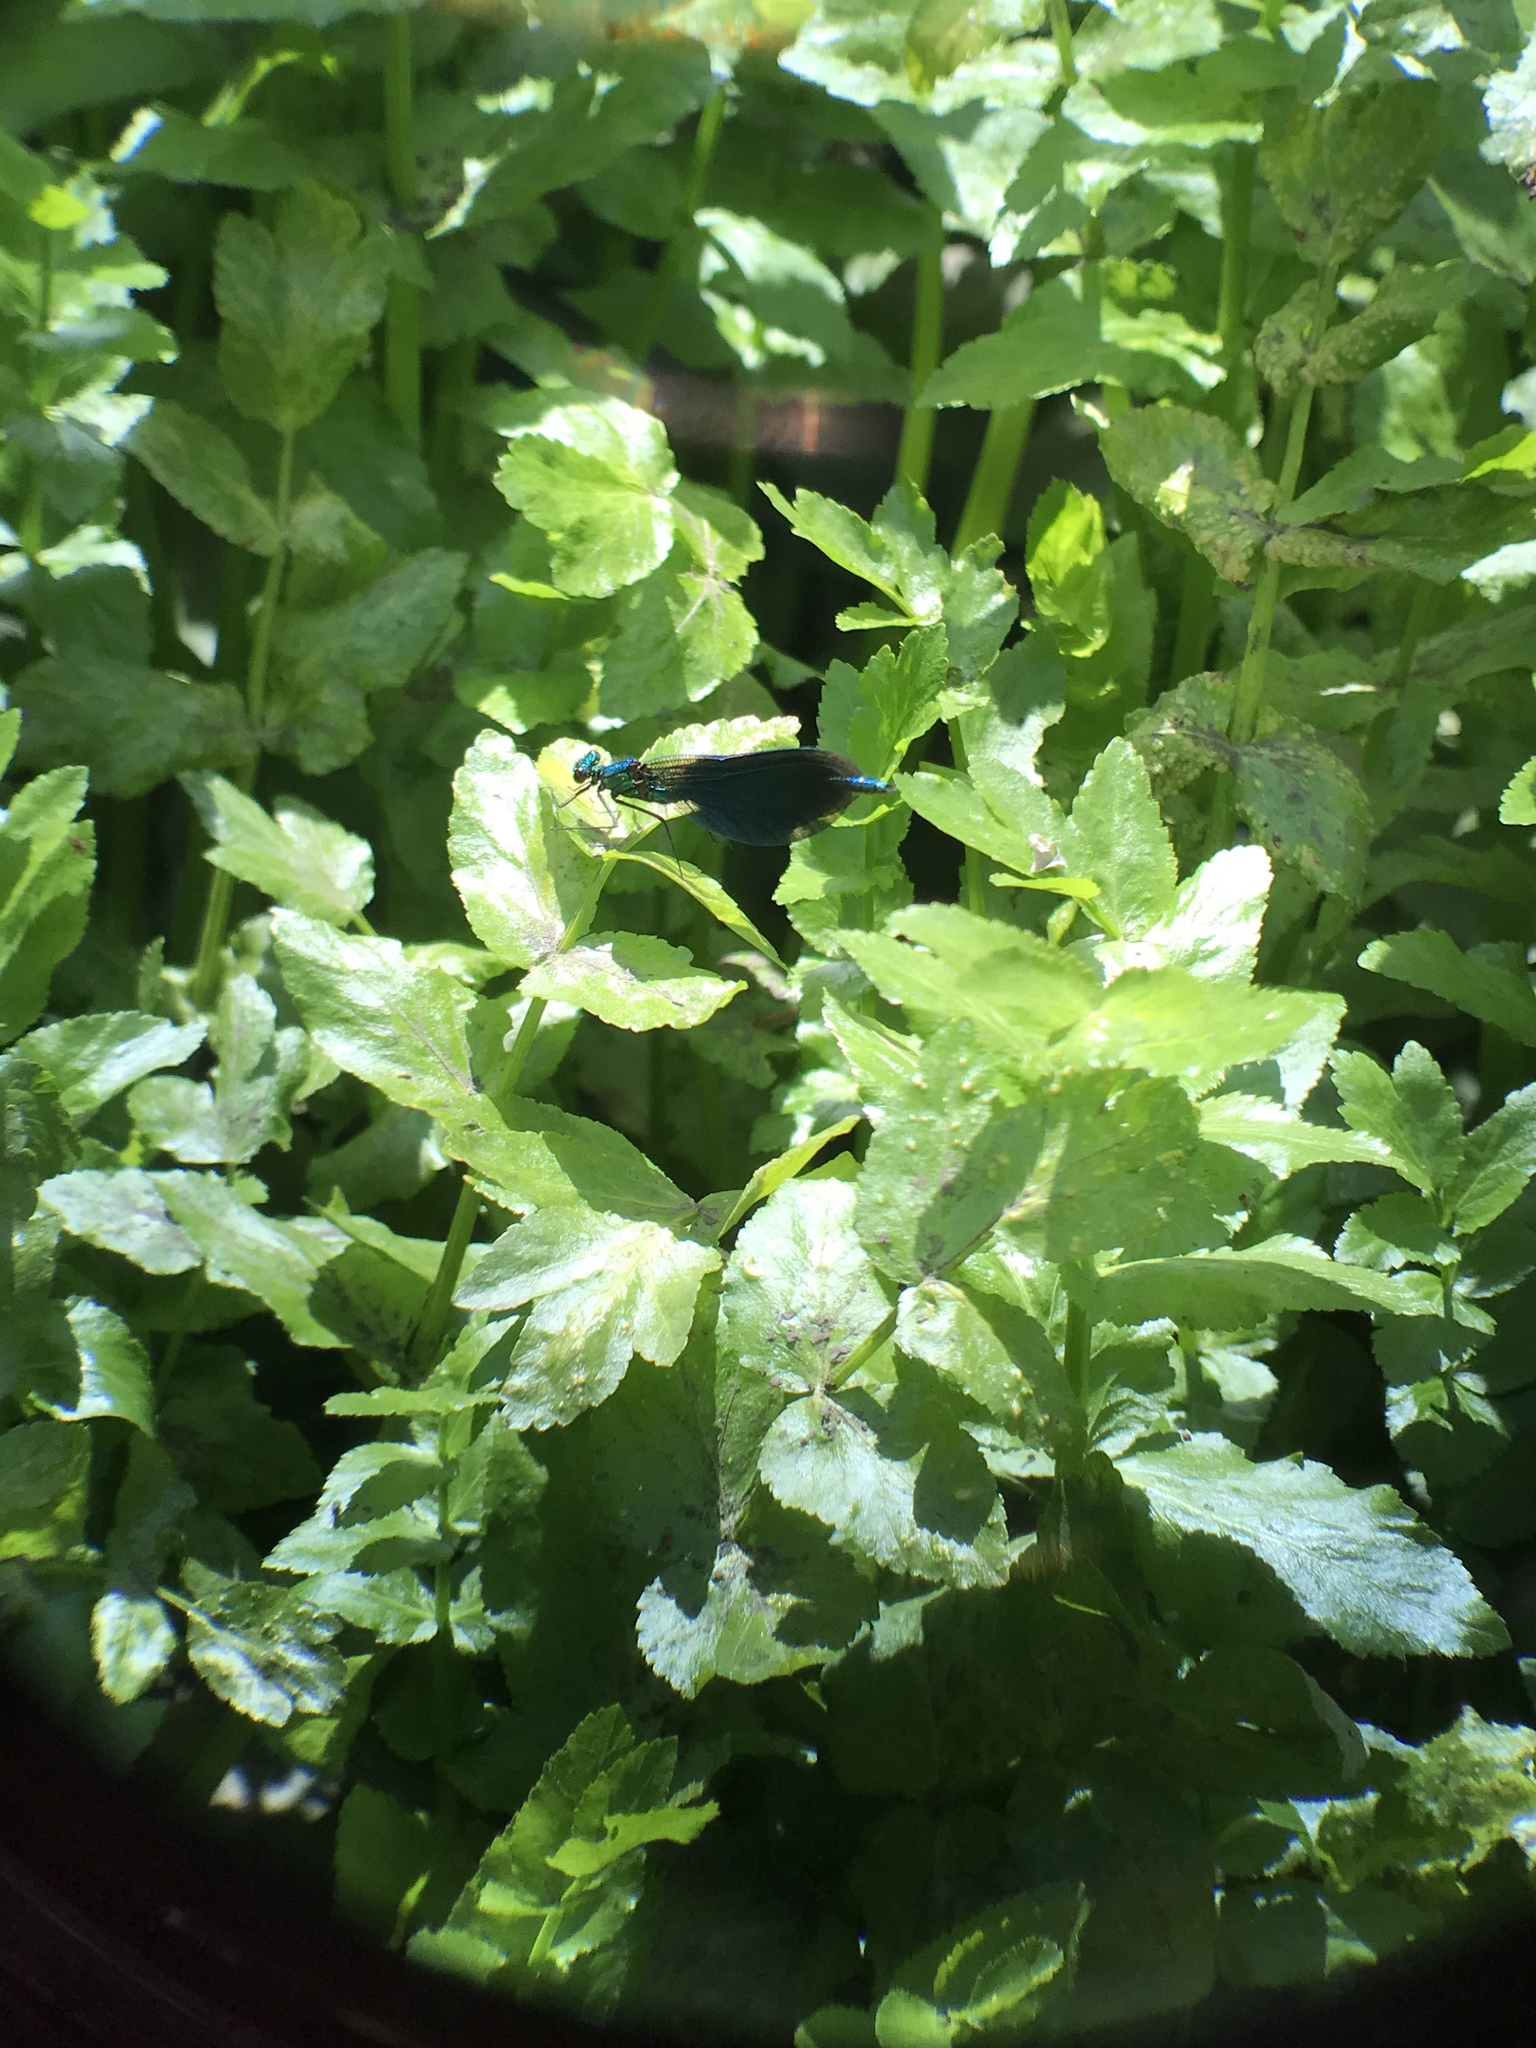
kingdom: Animalia
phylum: Arthropoda
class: Insecta
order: Odonata
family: Calopterygidae
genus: Calopteryx
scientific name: Calopteryx virgo
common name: Beautiful demoiselle
